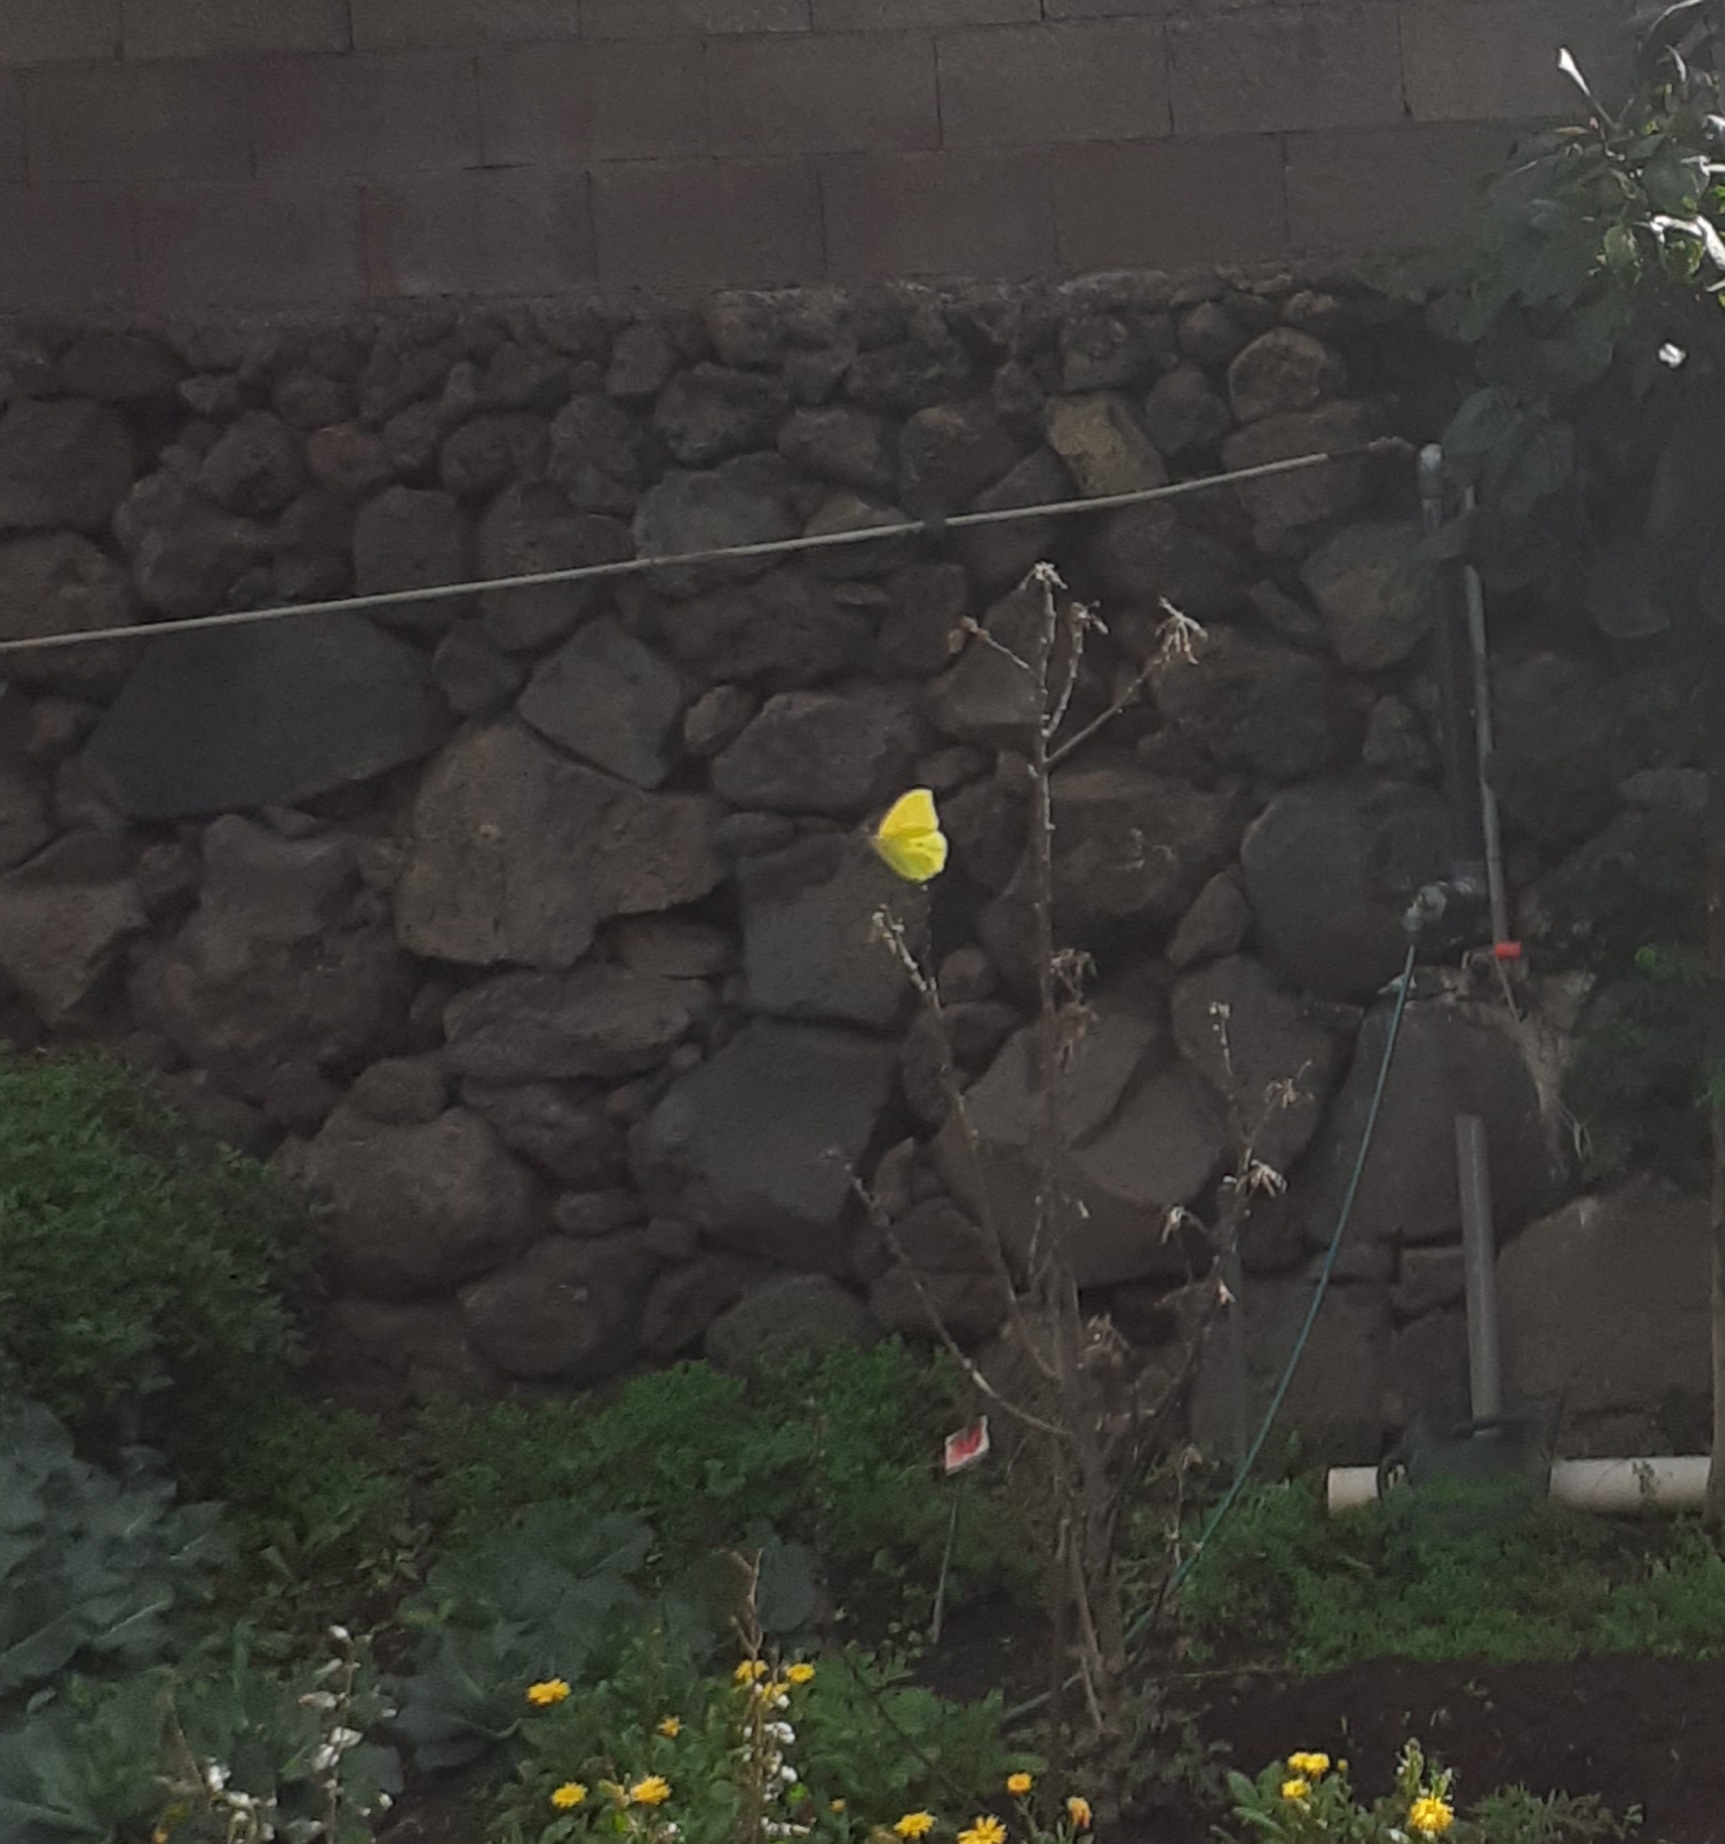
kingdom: Animalia
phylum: Arthropoda
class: Insecta
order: Lepidoptera
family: Pieridae
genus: Gonepteryx
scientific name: Gonepteryx cleobule
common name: Canary brimstone
